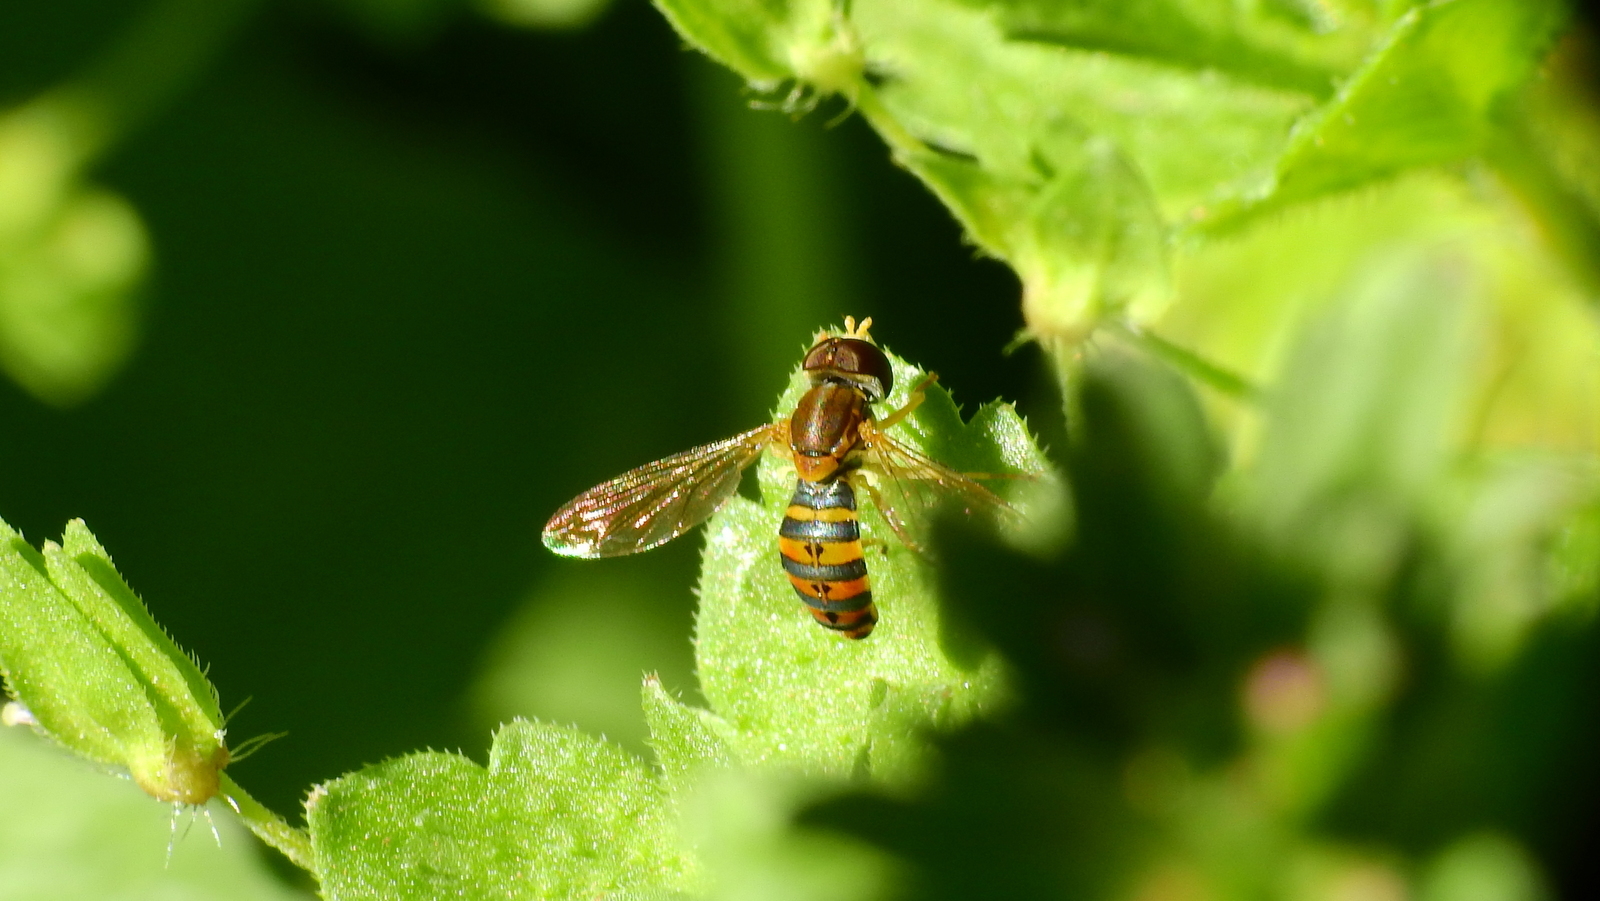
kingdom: Animalia
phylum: Arthropoda
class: Insecta
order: Diptera
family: Syrphidae
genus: Toxomerus
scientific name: Toxomerus
